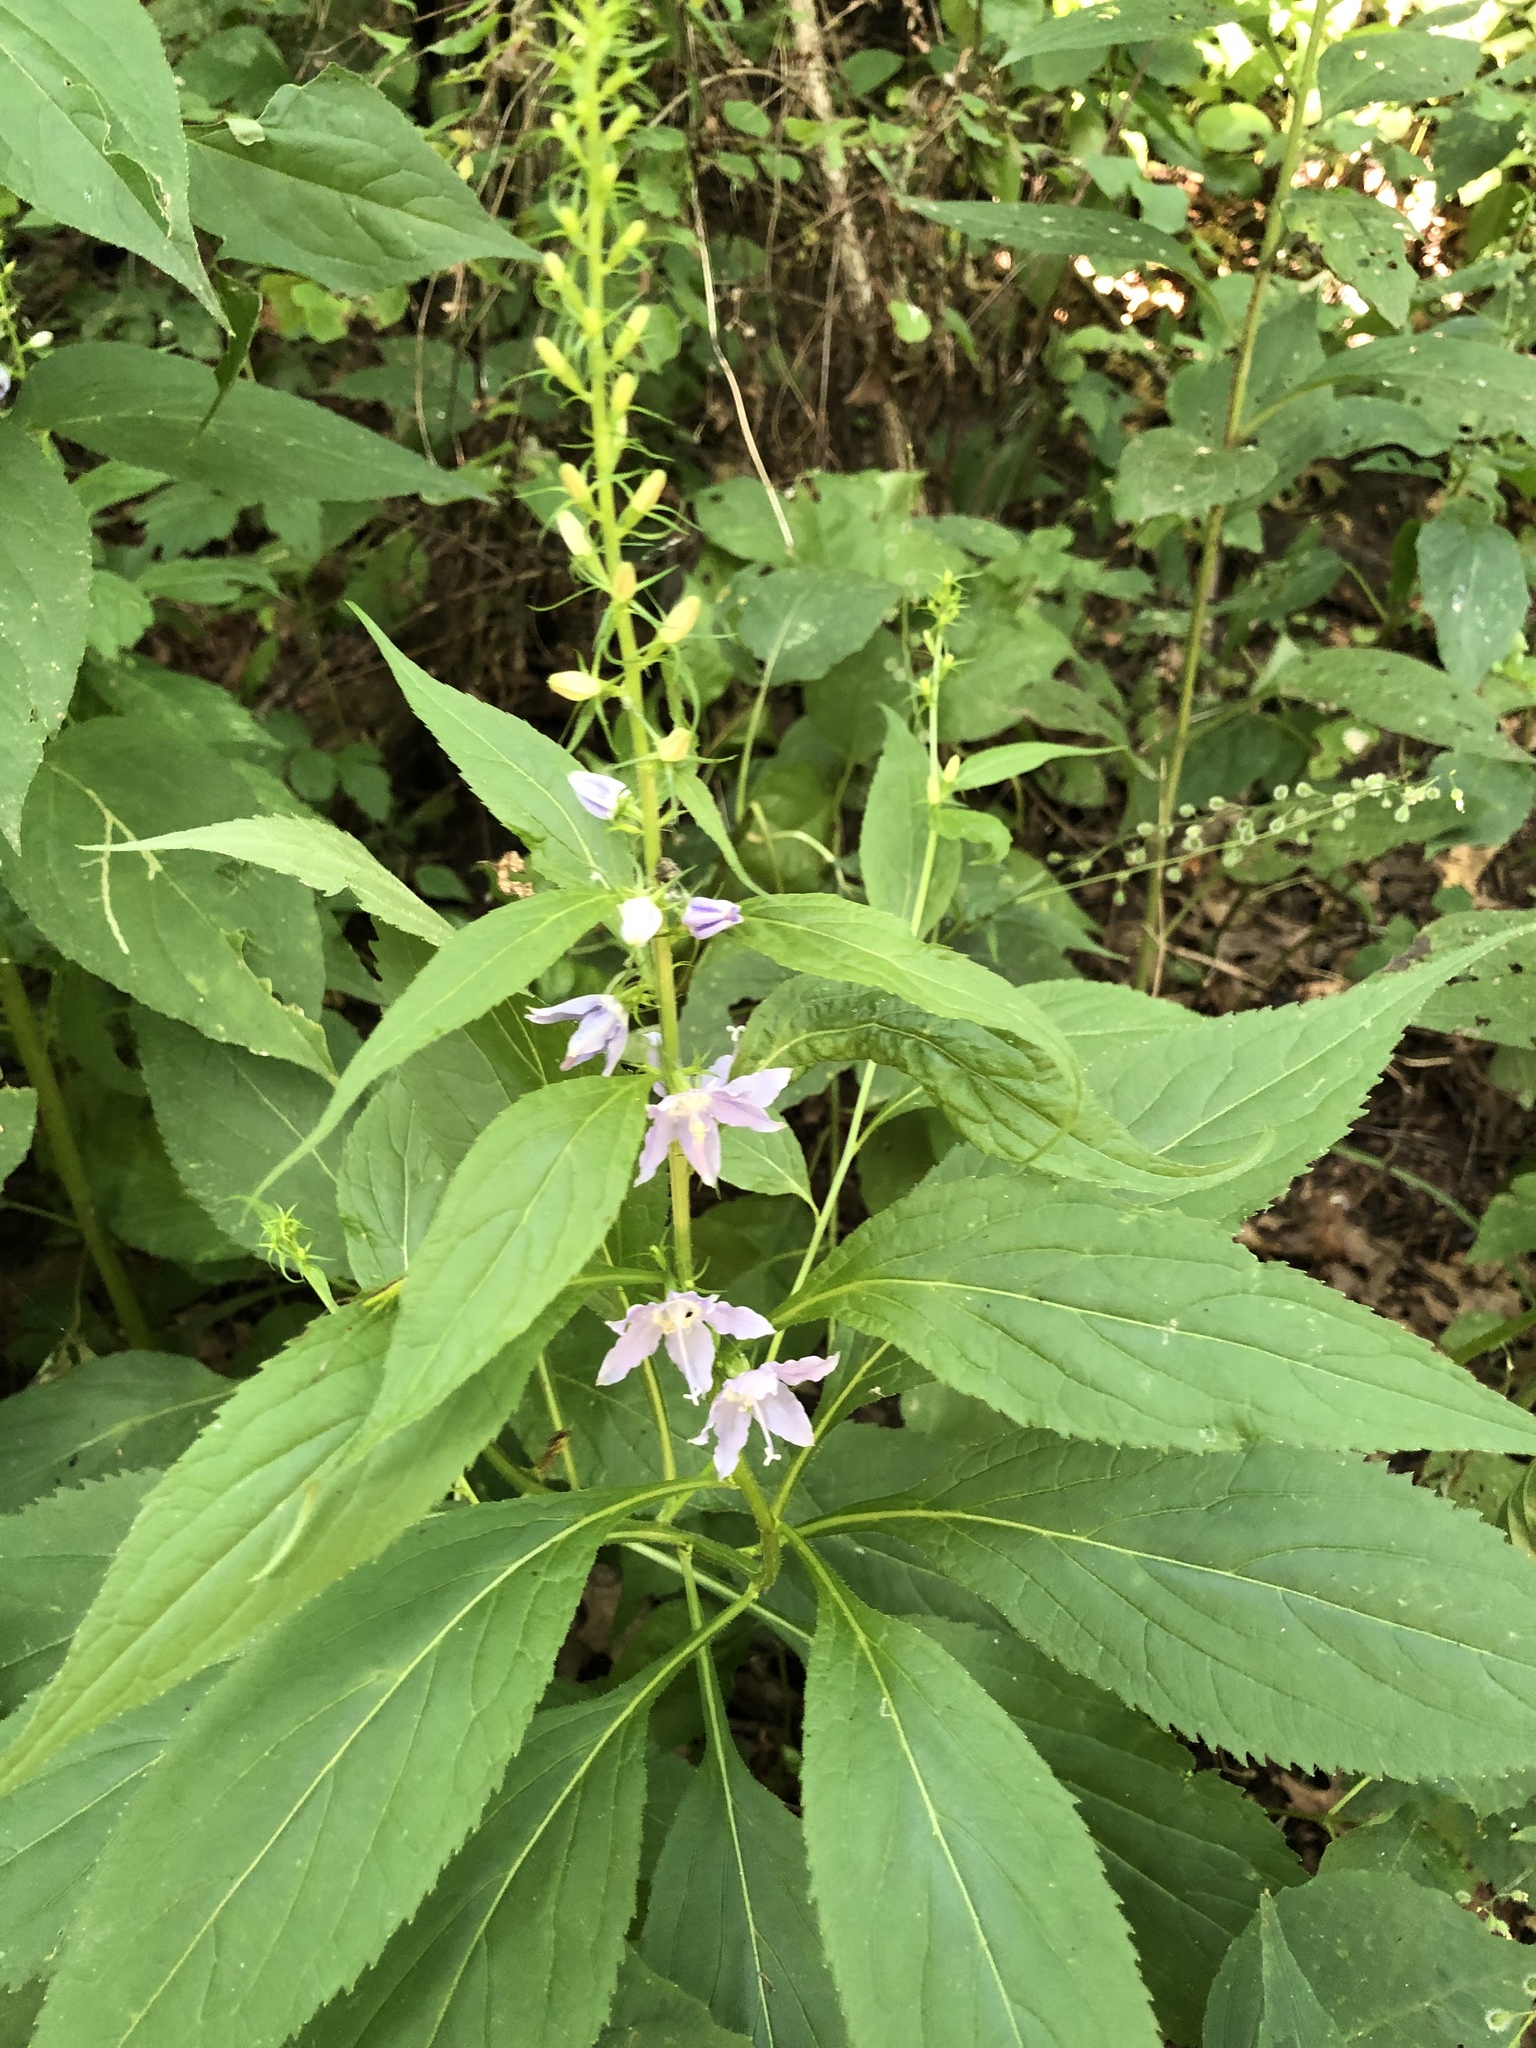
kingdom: Plantae
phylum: Tracheophyta
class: Magnoliopsida
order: Asterales
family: Campanulaceae
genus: Campanulastrum
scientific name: Campanulastrum americanum
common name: American bellflower
